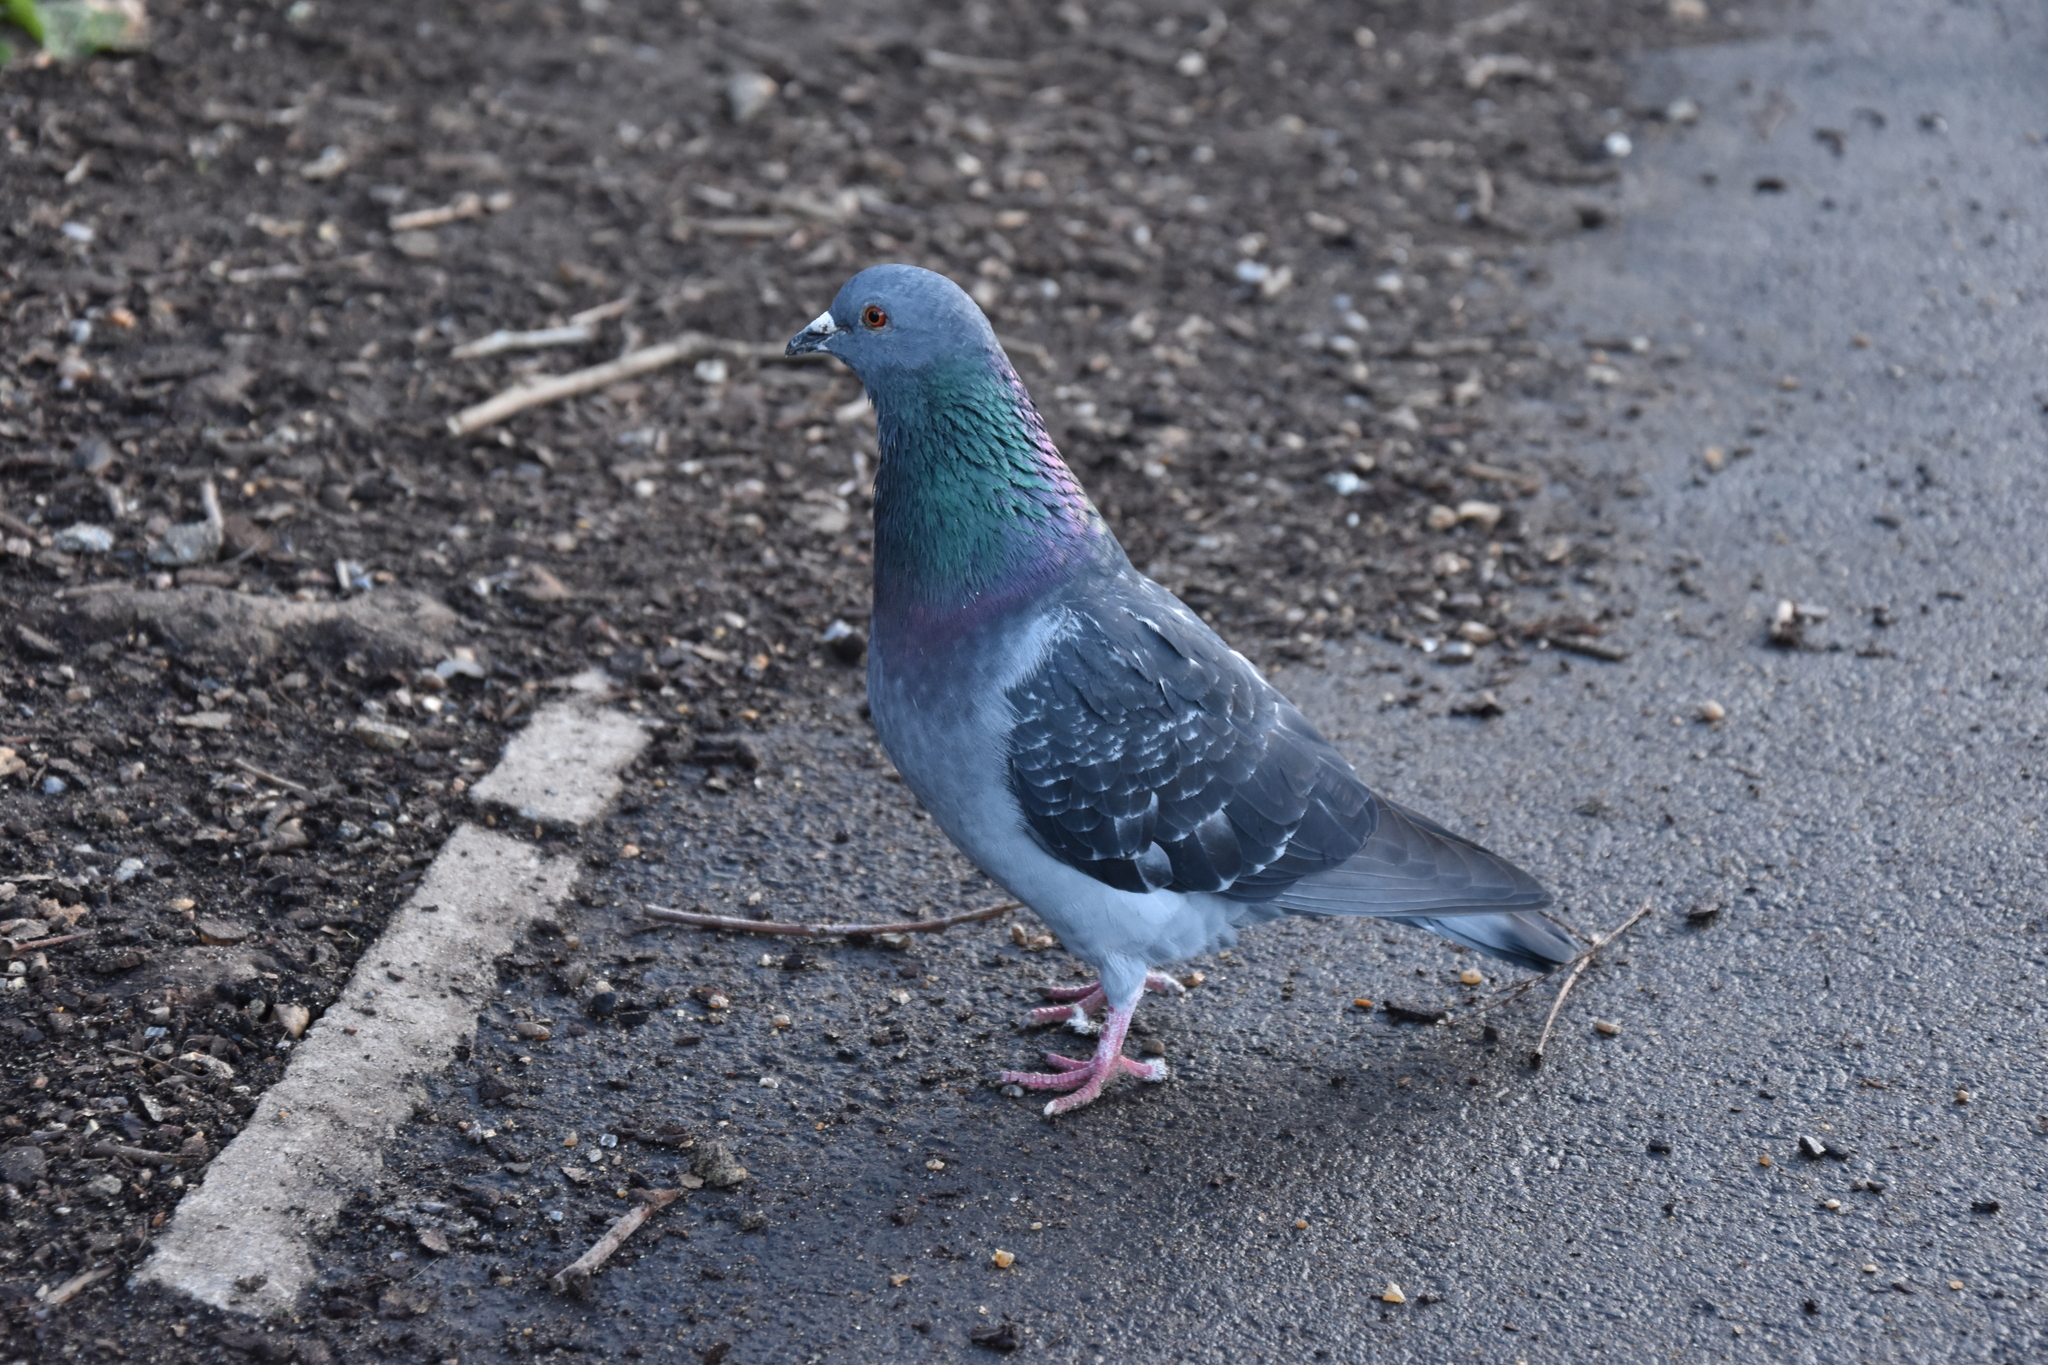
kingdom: Animalia
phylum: Chordata
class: Aves
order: Columbiformes
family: Columbidae
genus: Columba
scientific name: Columba livia
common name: Rock pigeon
